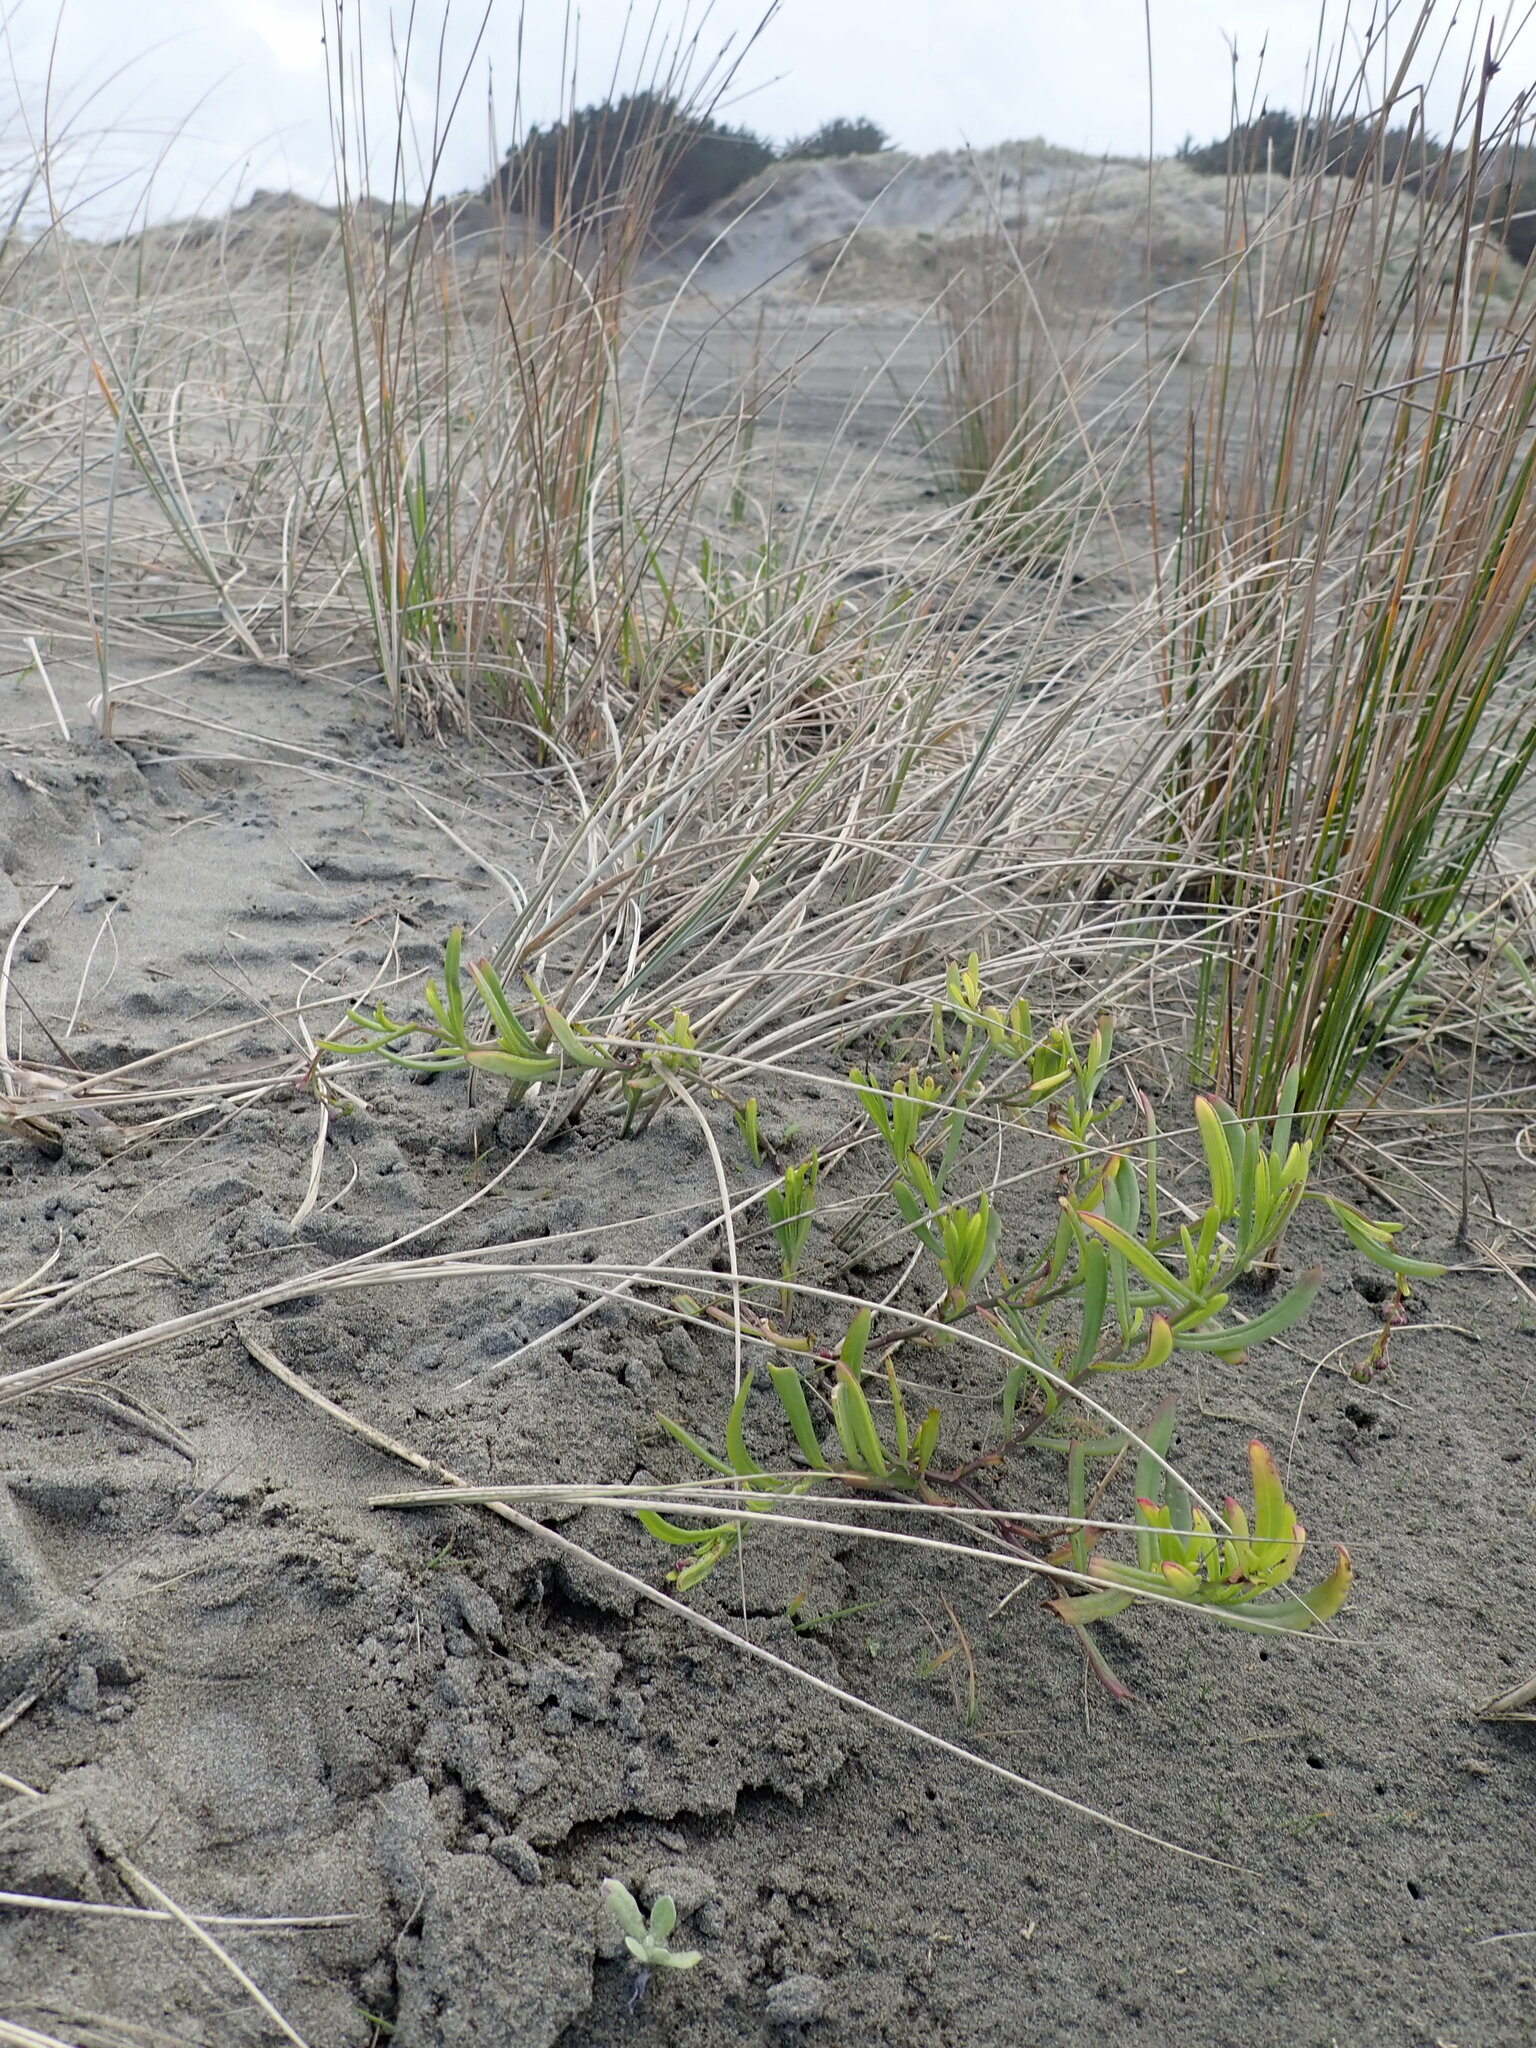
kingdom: Plantae
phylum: Tracheophyta
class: Magnoliopsida
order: Asterales
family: Asteraceae
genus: Senecio
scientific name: Senecio skirrhodon
